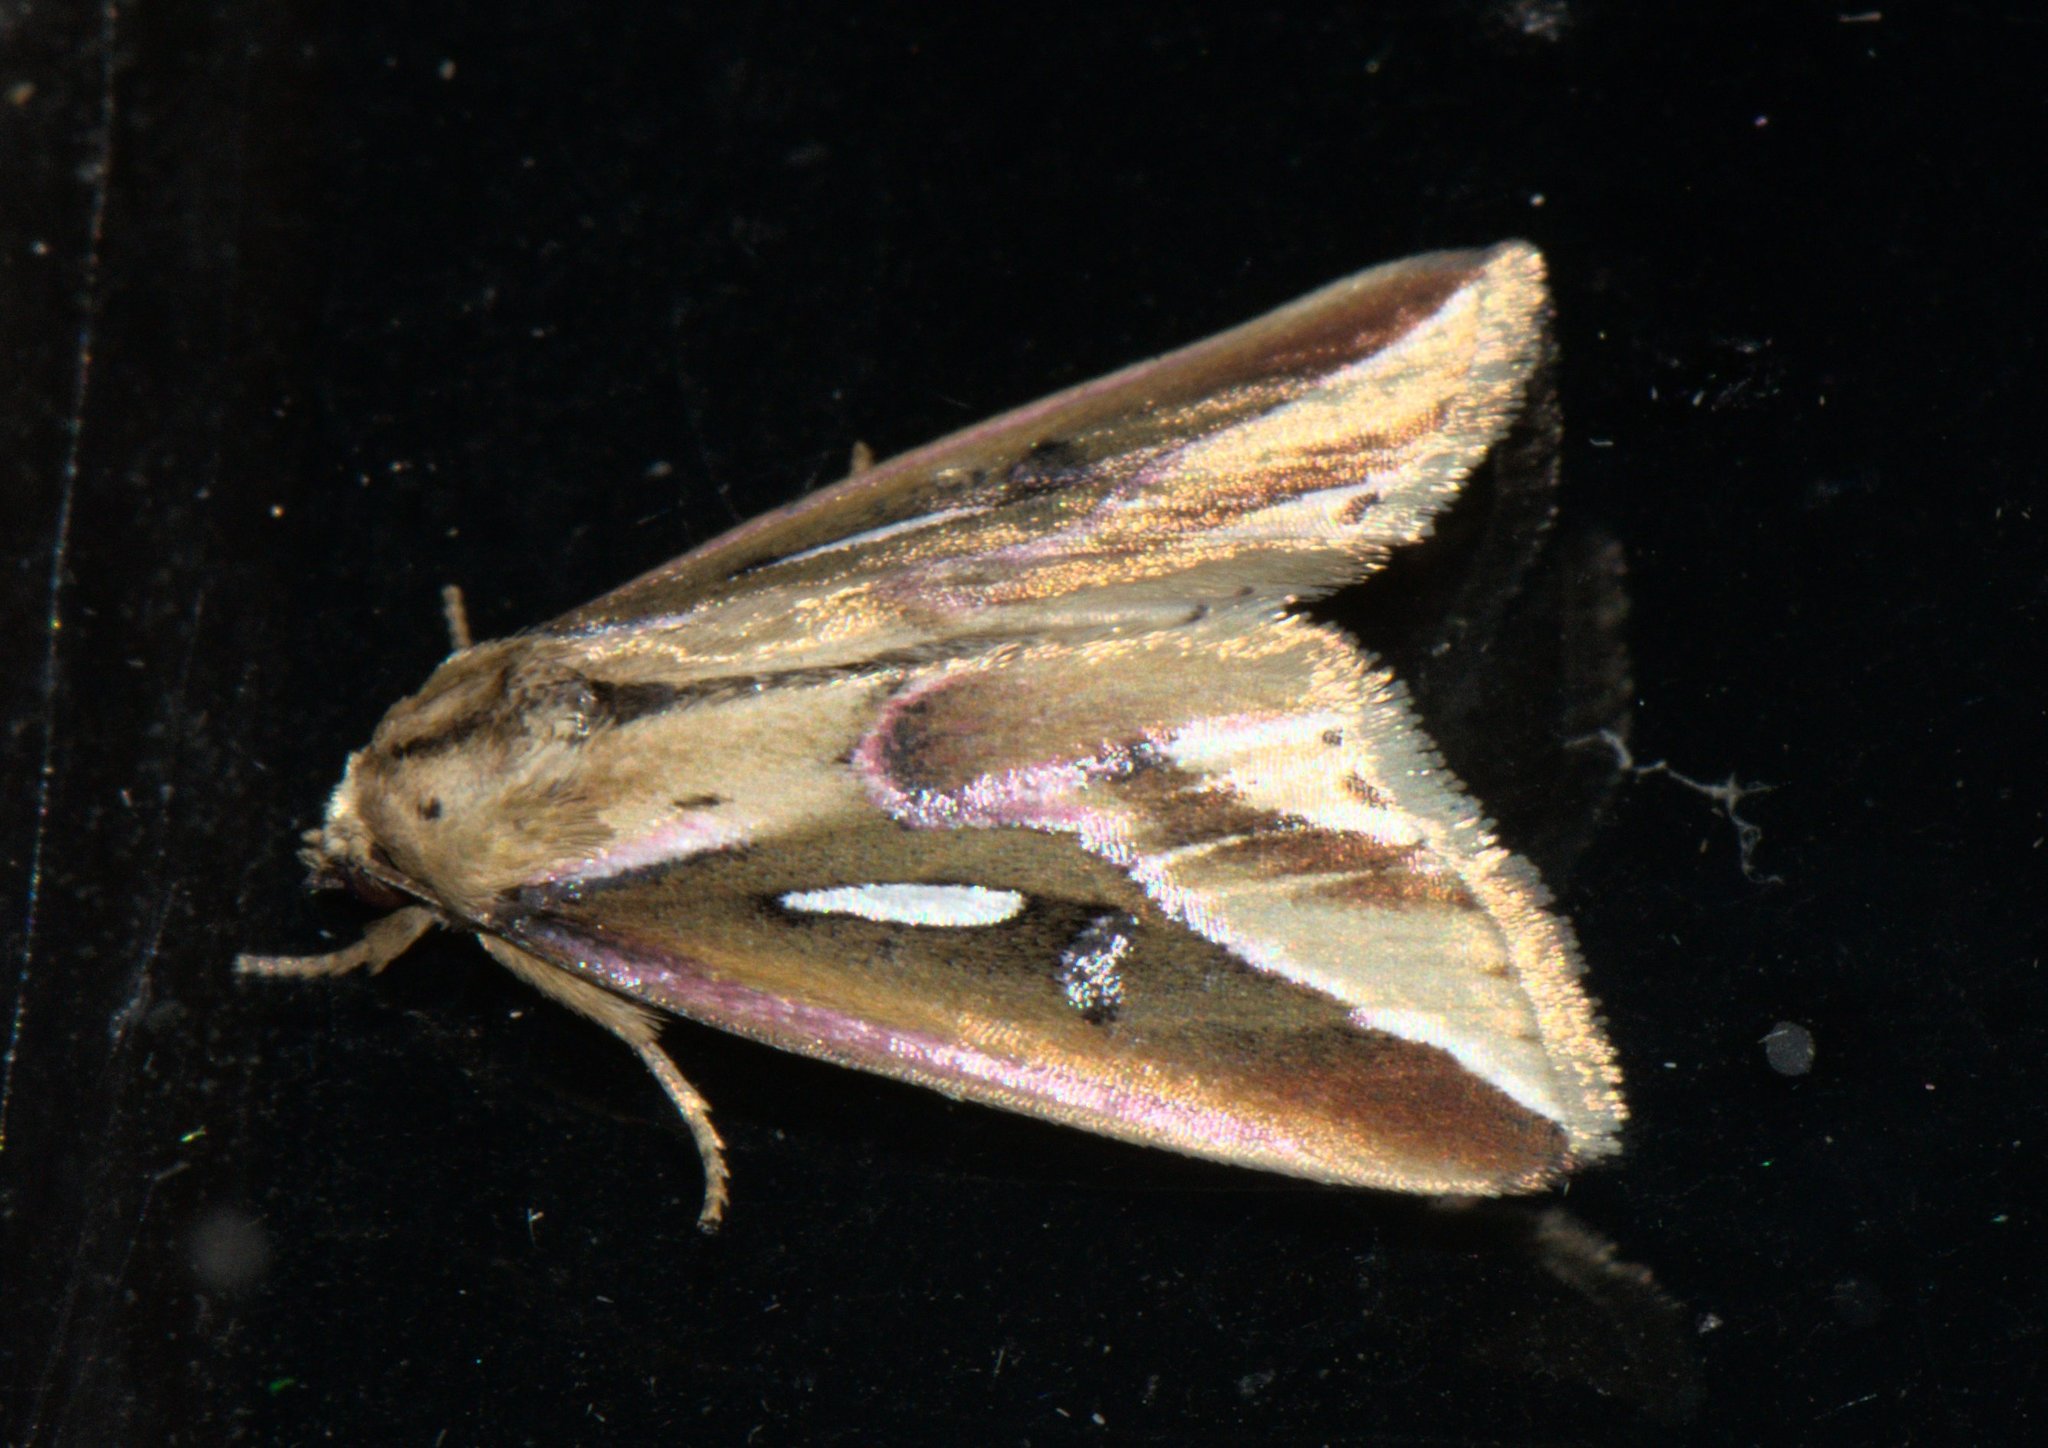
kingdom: Animalia
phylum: Arthropoda
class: Insecta
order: Lepidoptera
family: Noctuidae
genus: Micardia
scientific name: Micardia pulcherrima
